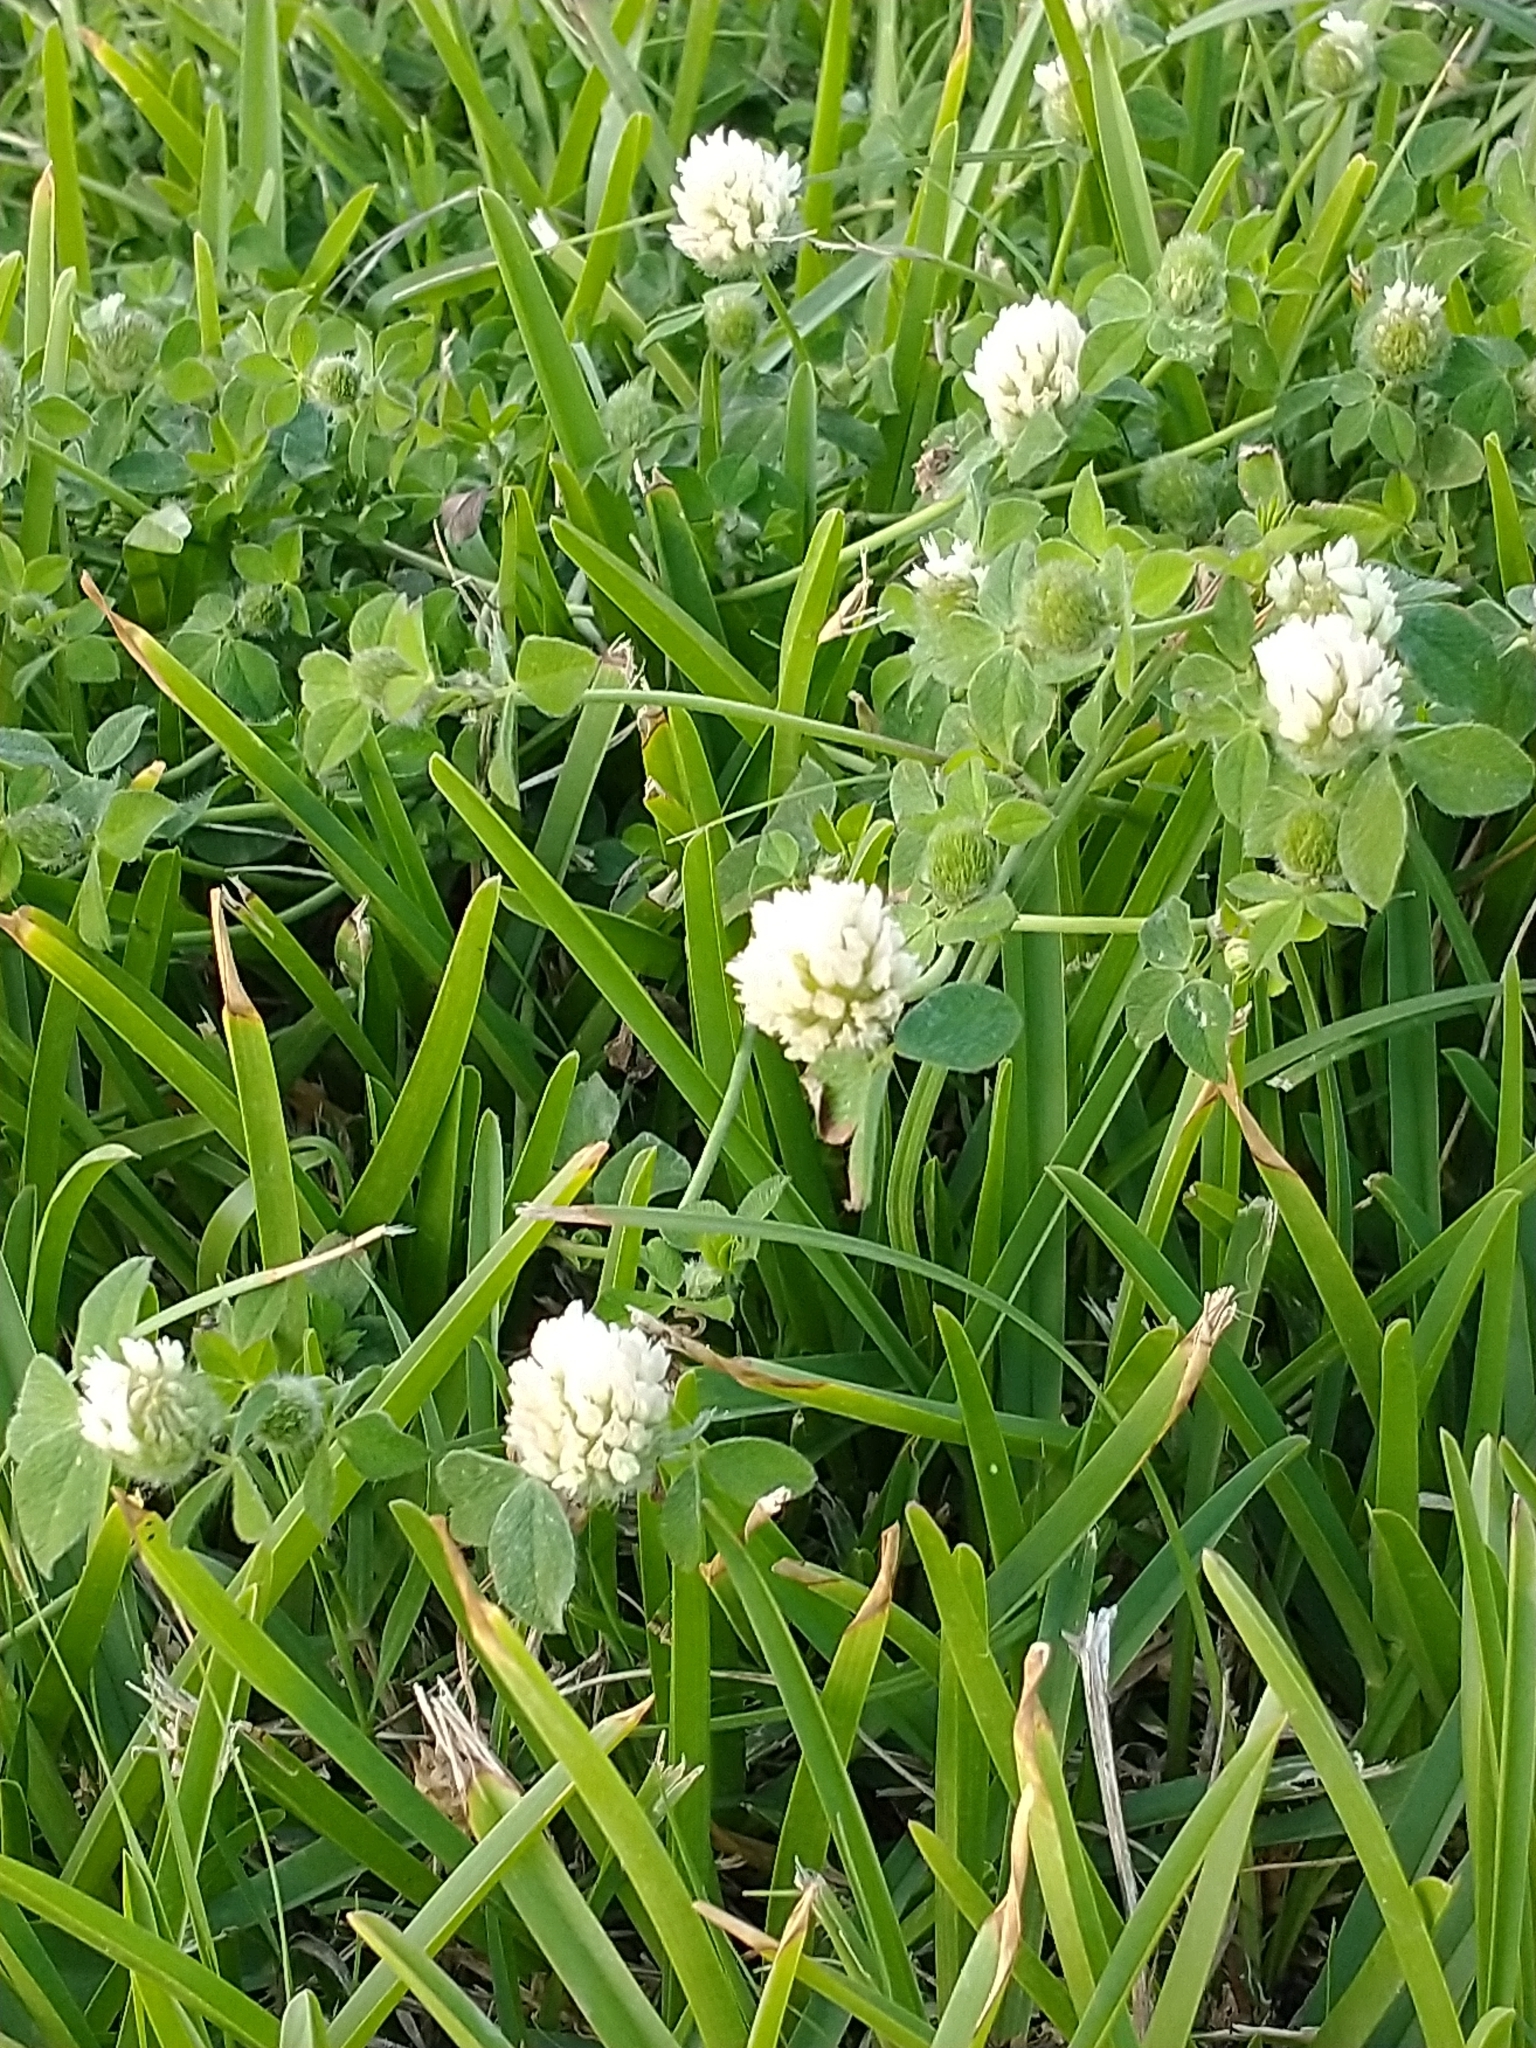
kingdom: Plantae
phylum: Tracheophyta
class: Magnoliopsida
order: Fabales
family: Fabaceae
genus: Trifolium
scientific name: Trifolium nigrescens
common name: Small white clover
